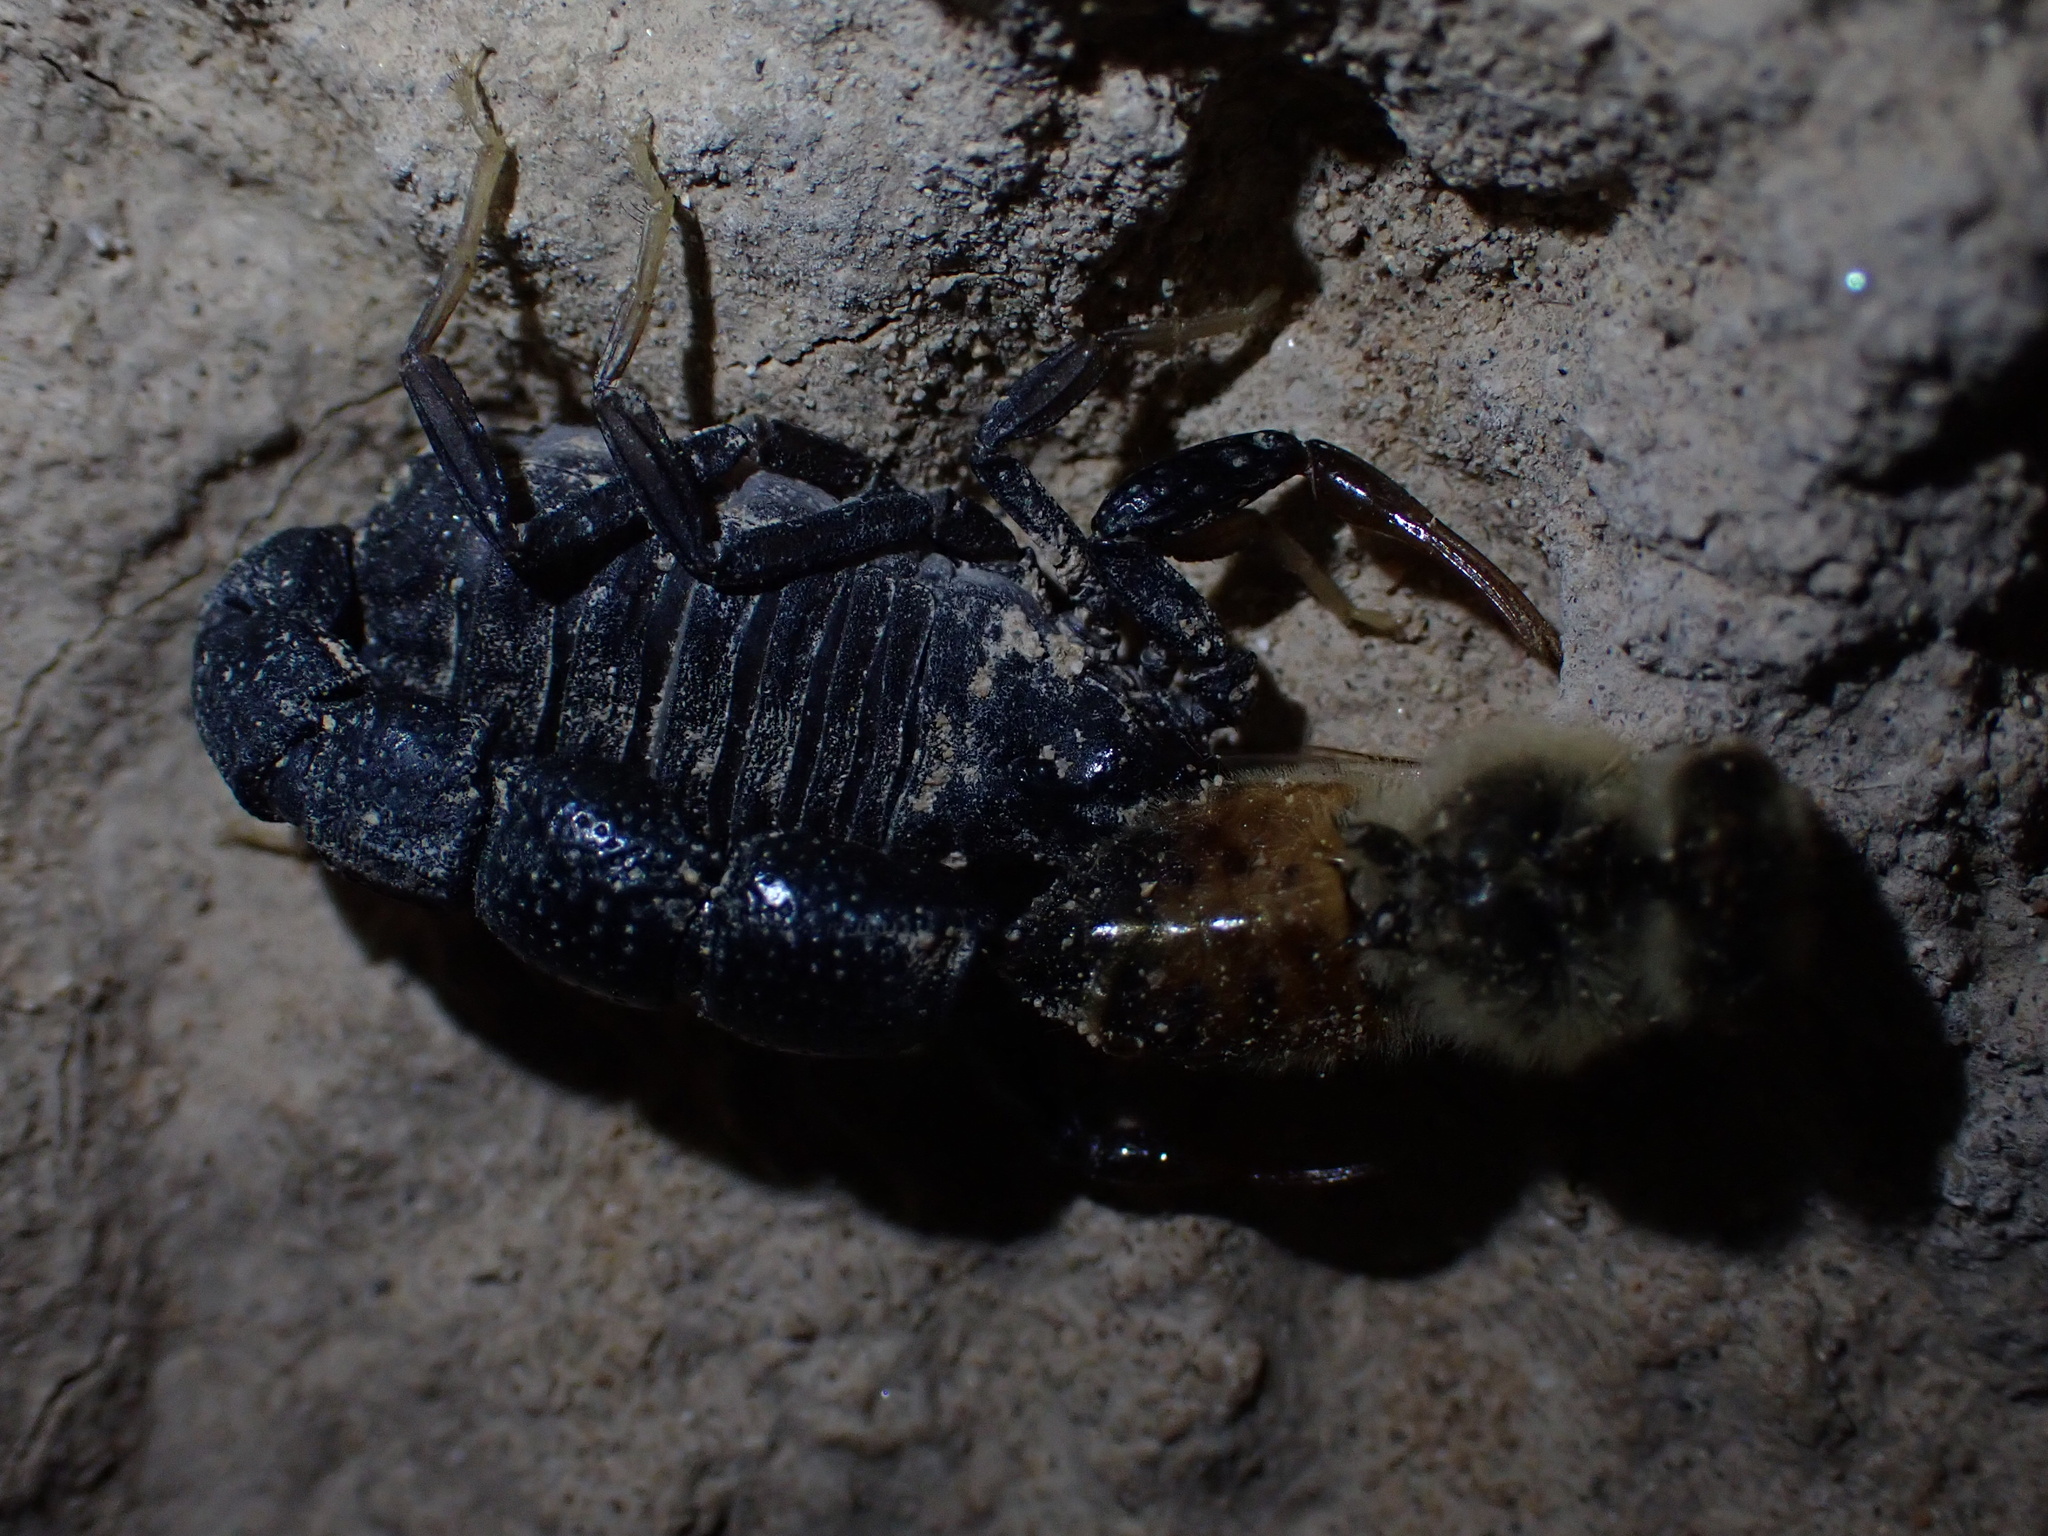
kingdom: Animalia
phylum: Arthropoda
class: Arachnida
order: Scorpiones
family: Buthidae
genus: Orthochirus
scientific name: Orthochirus mesopotamicus
